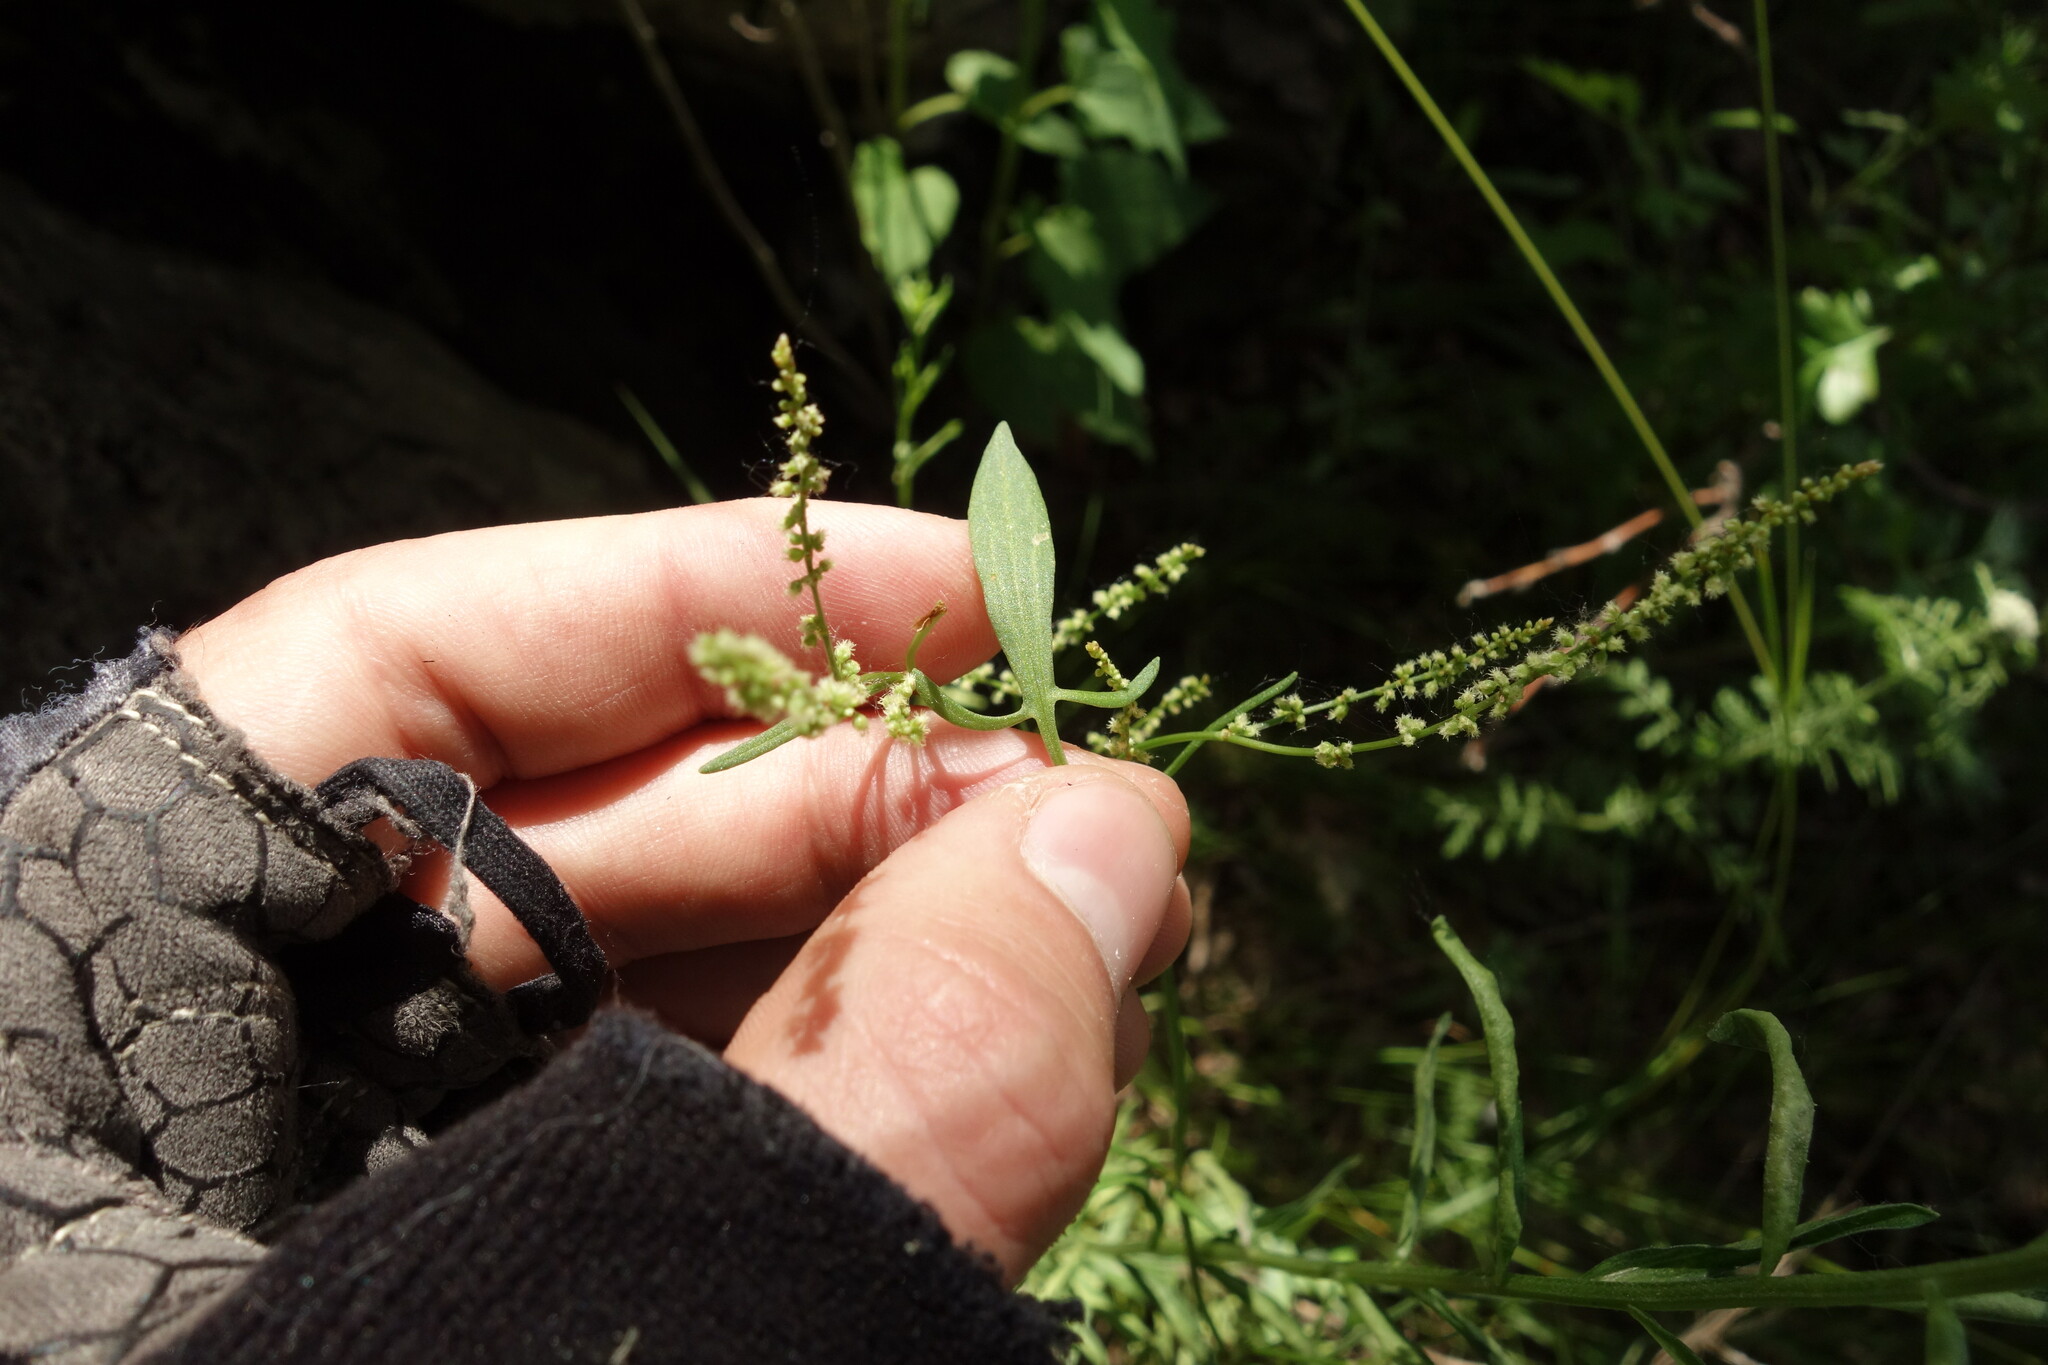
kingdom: Plantae
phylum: Tracheophyta
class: Magnoliopsida
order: Caryophyllales
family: Polygonaceae
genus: Rumex
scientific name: Rumex acetosella
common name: Common sheep sorrel
